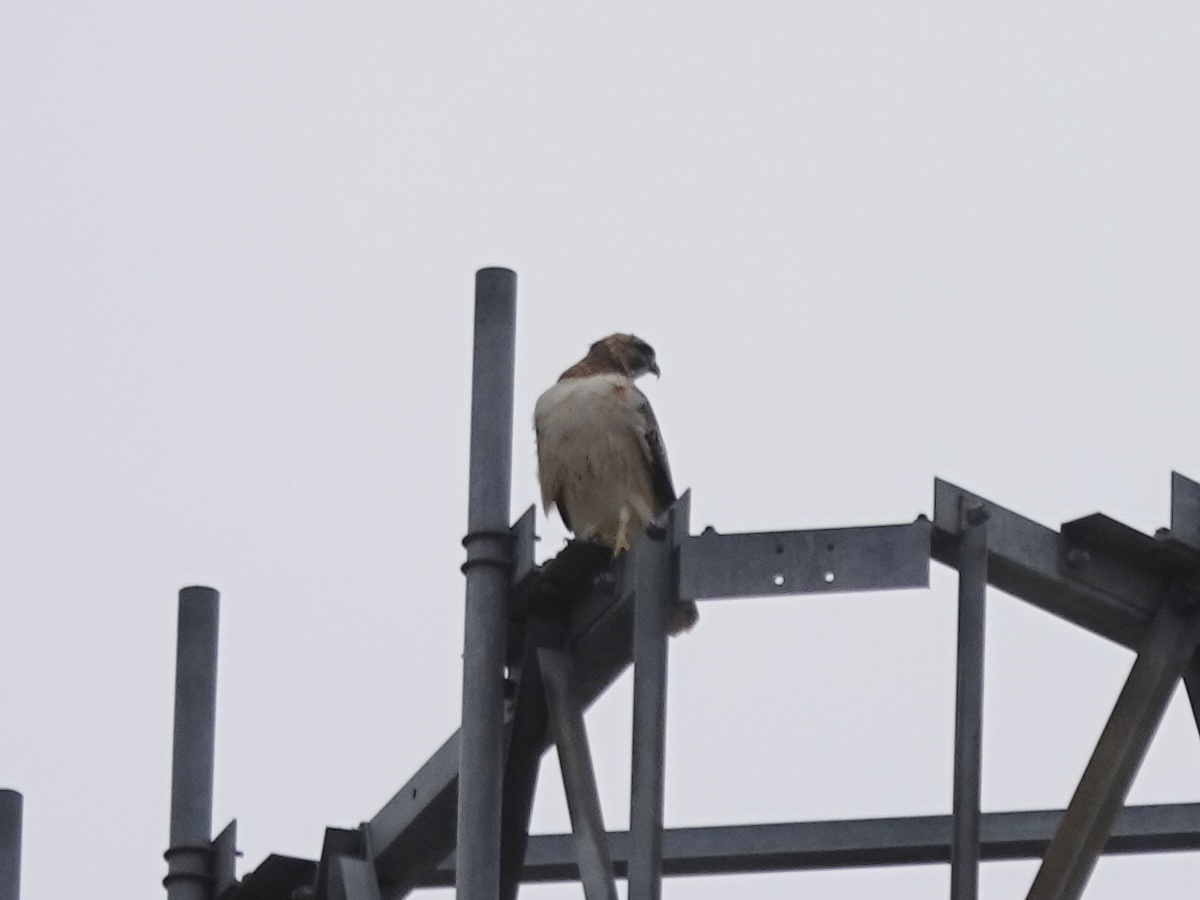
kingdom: Animalia
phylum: Chordata
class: Aves
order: Accipitriformes
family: Accipitridae
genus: Buteo
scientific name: Buteo jamaicensis
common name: Red-tailed hawk
